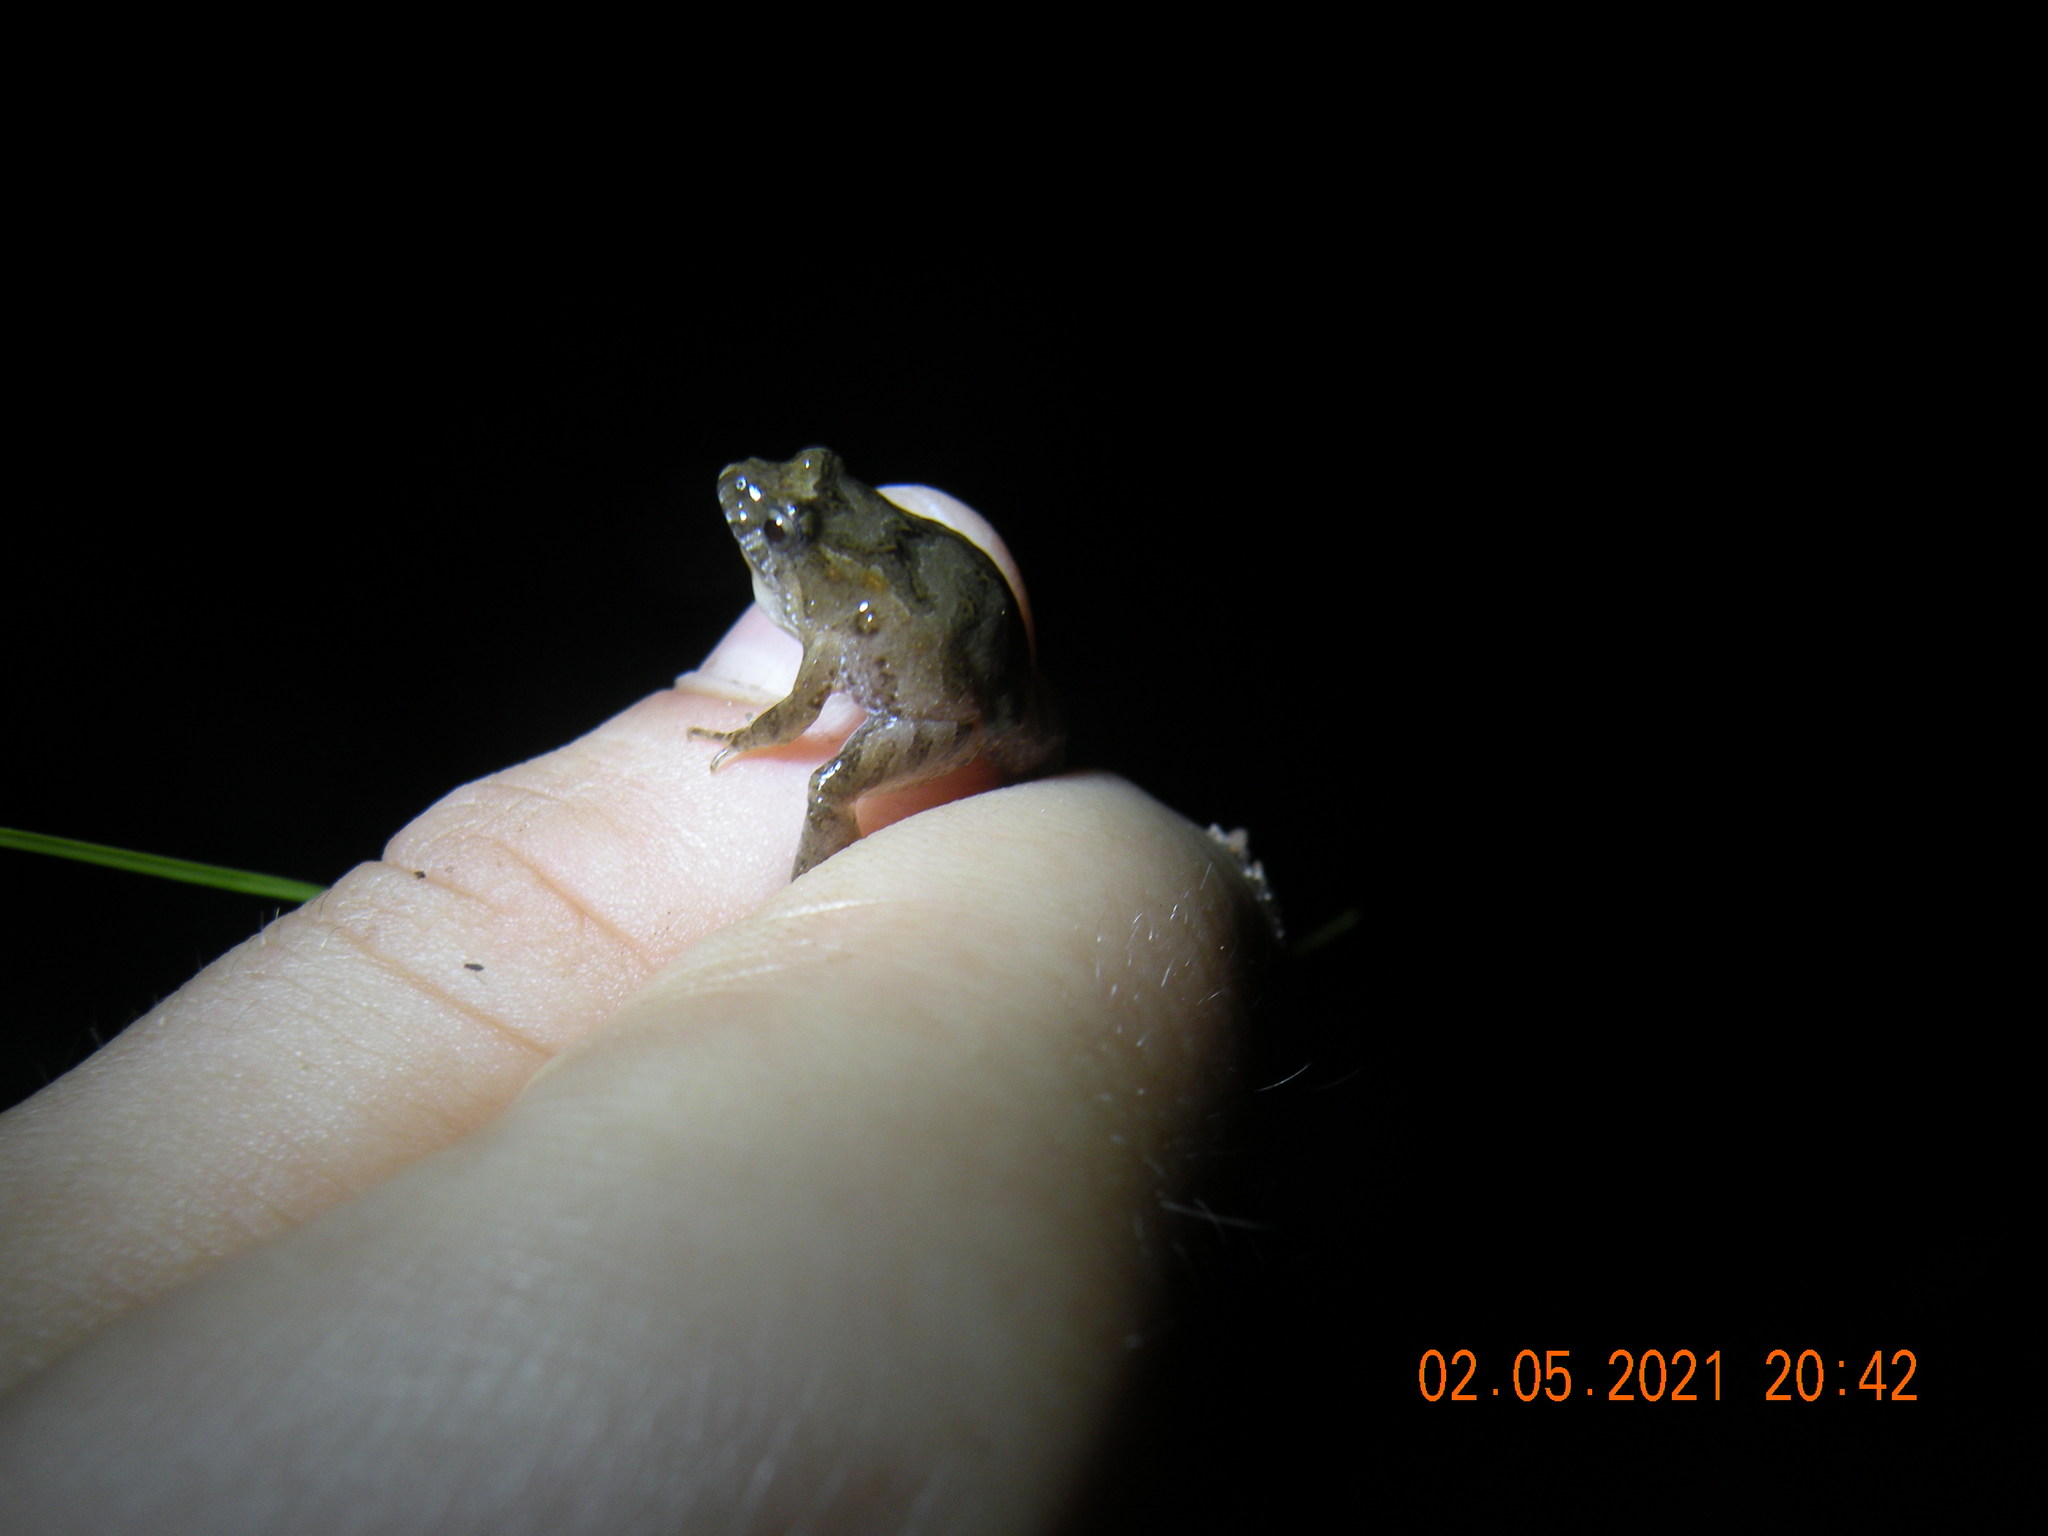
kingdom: Animalia
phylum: Chordata
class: Amphibia
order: Anura
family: Leptodactylidae
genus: Pseudopaludicola
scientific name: Pseudopaludicola falcipes
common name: Hensel’s swamp frog
